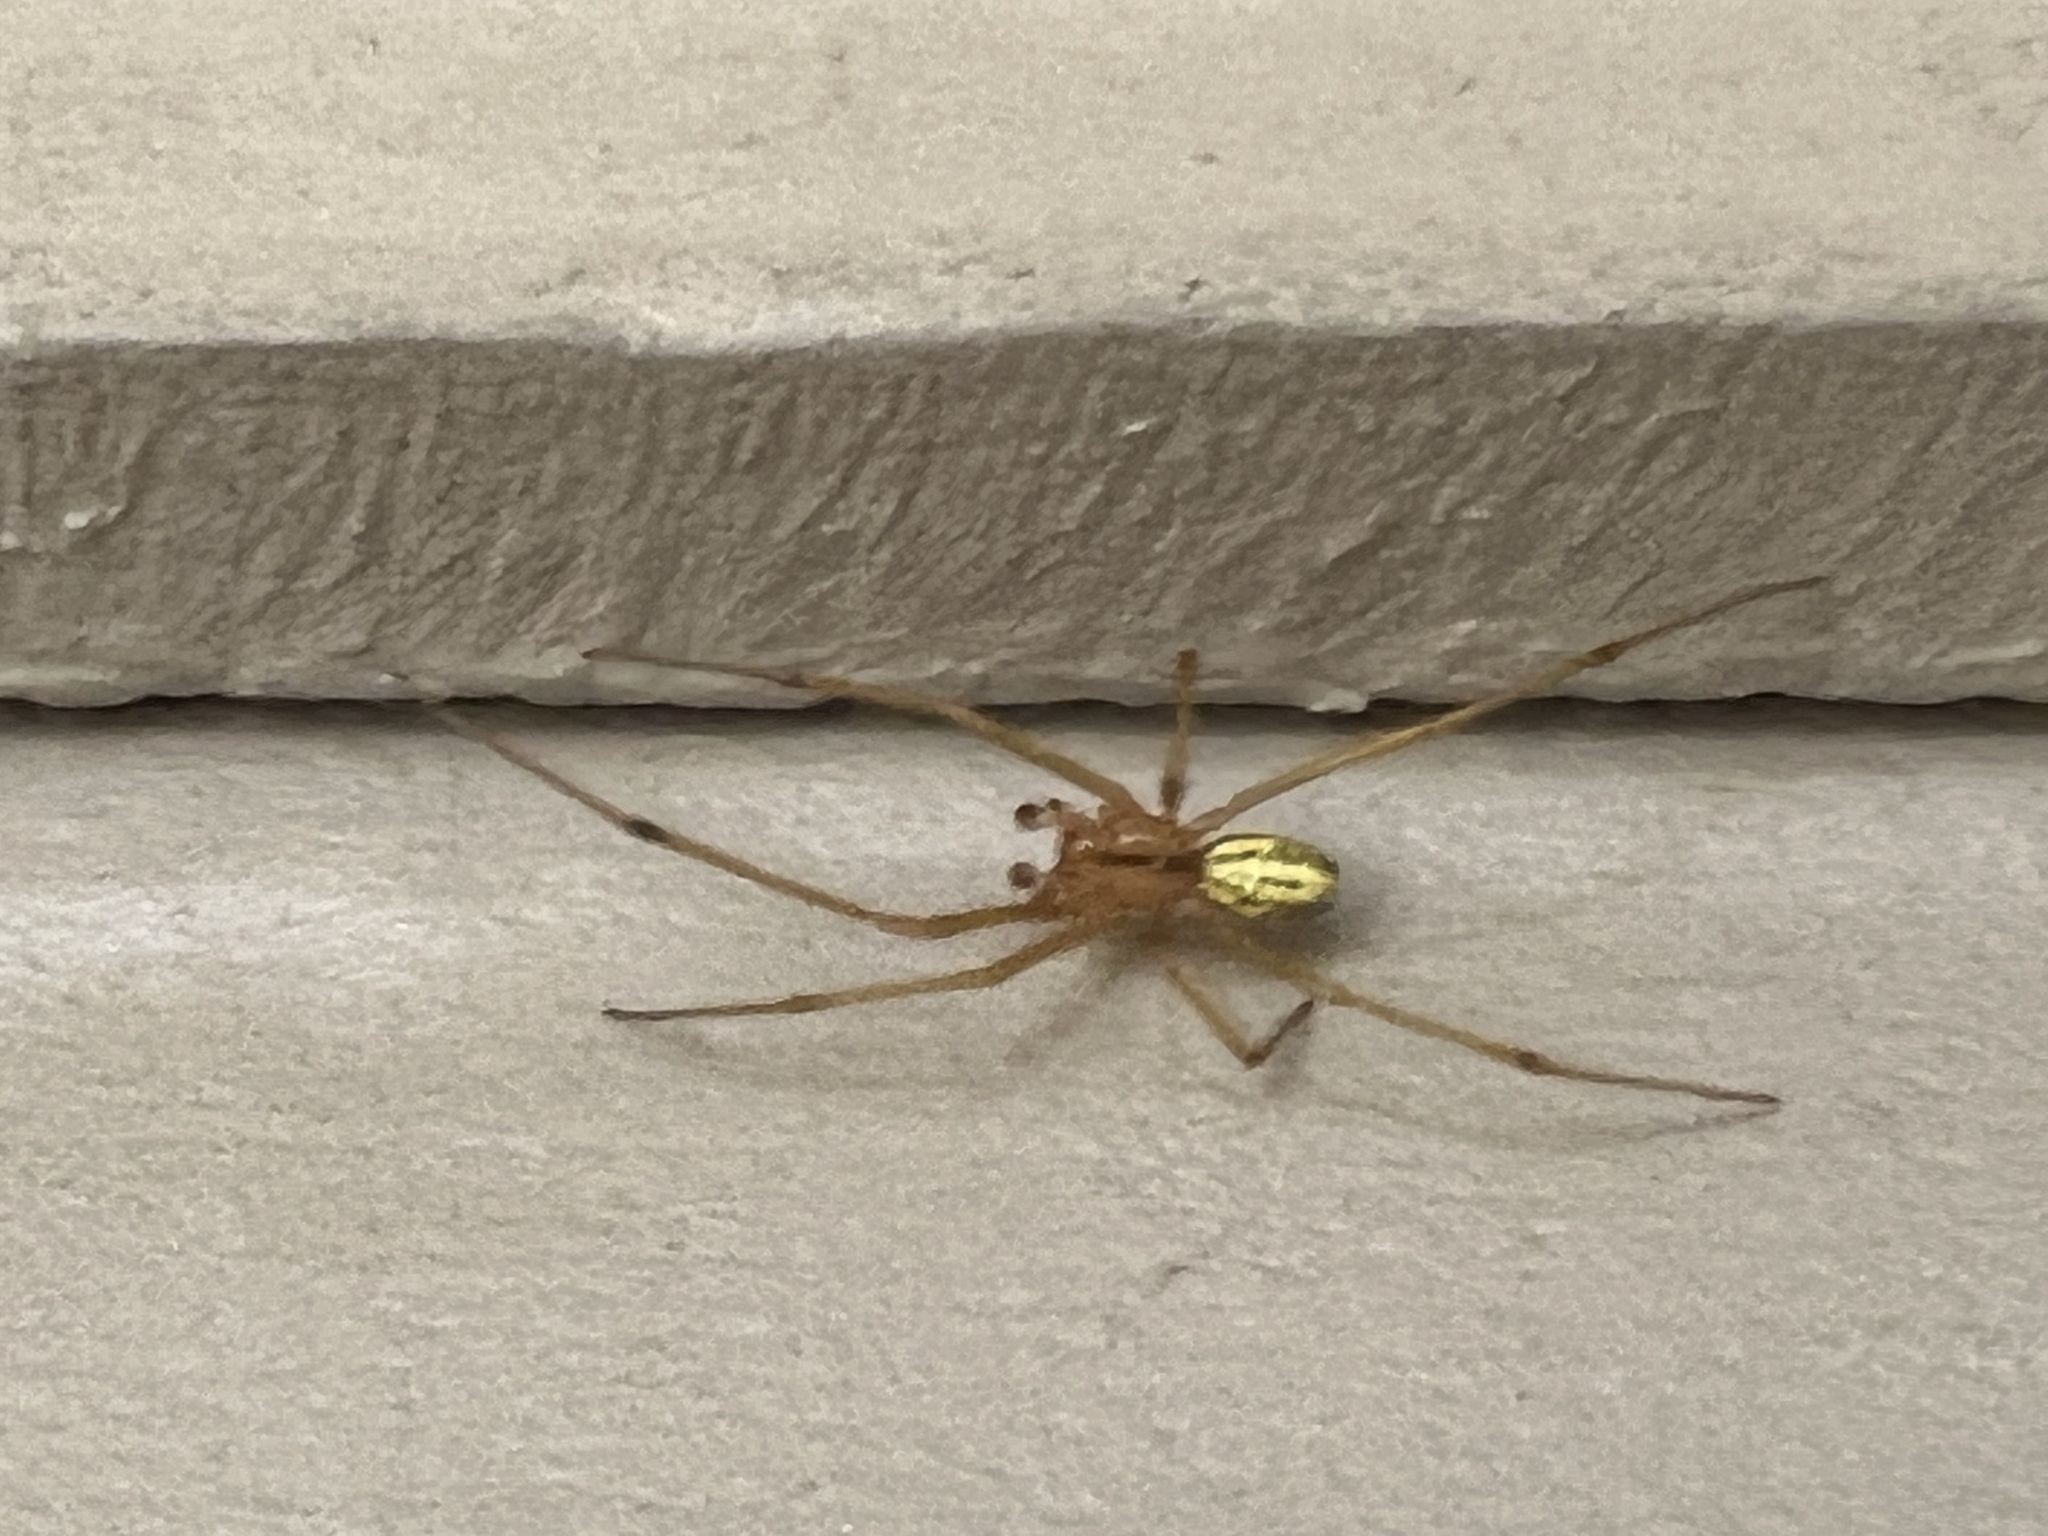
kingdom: Animalia
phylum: Arthropoda
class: Arachnida
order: Araneae
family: Theridiidae
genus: Enoplognatha
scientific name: Enoplognatha latimana
